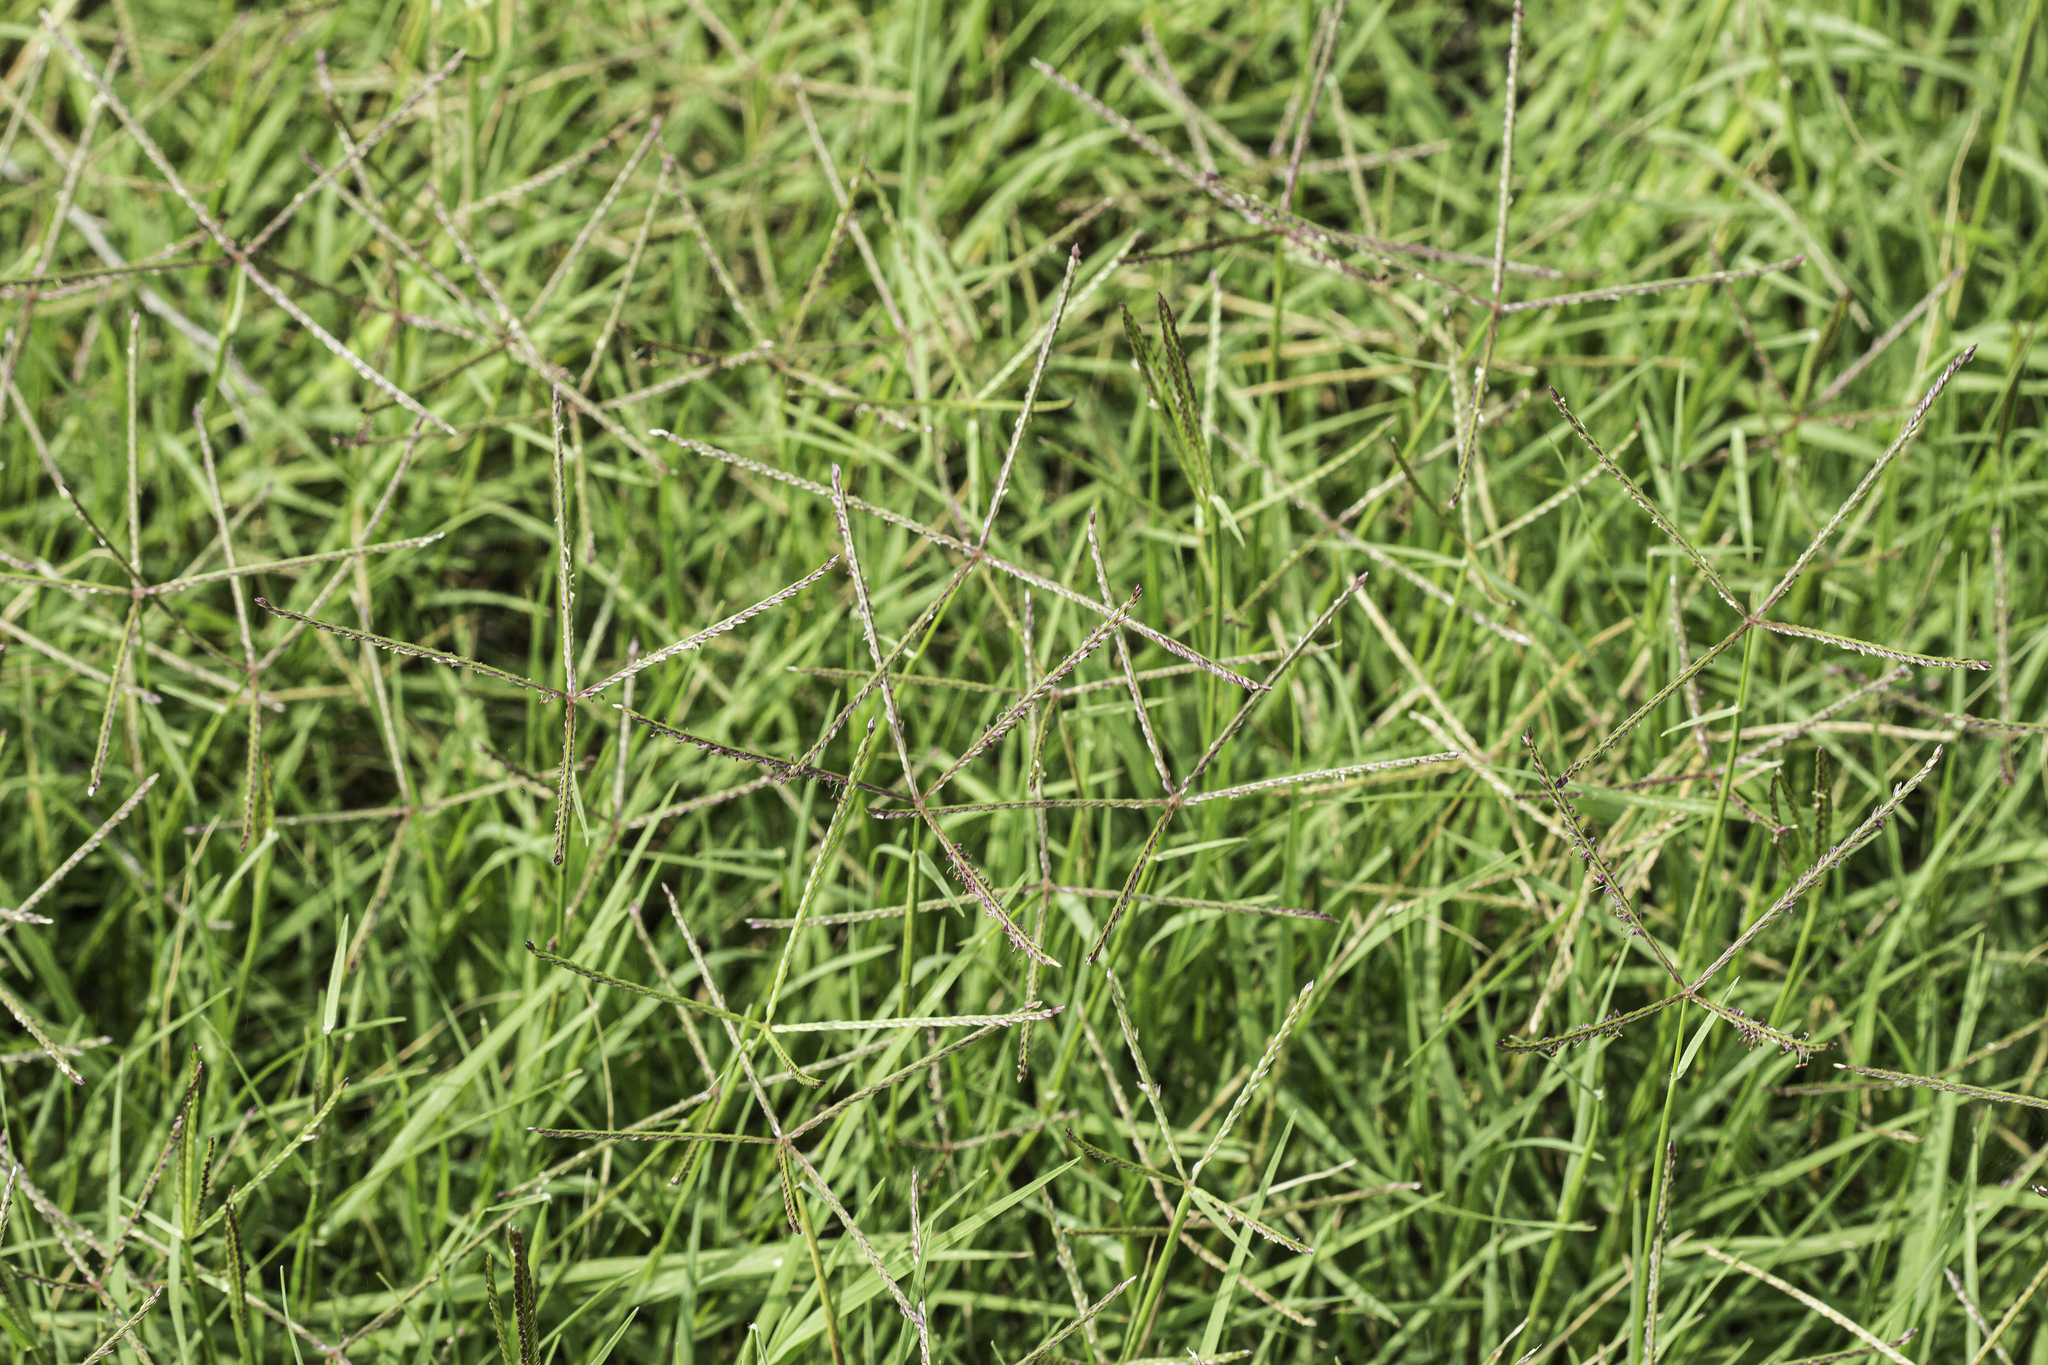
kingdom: Plantae
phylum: Tracheophyta
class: Liliopsida
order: Poales
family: Poaceae
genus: Cynodon
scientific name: Cynodon dactylon
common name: Bermuda grass
